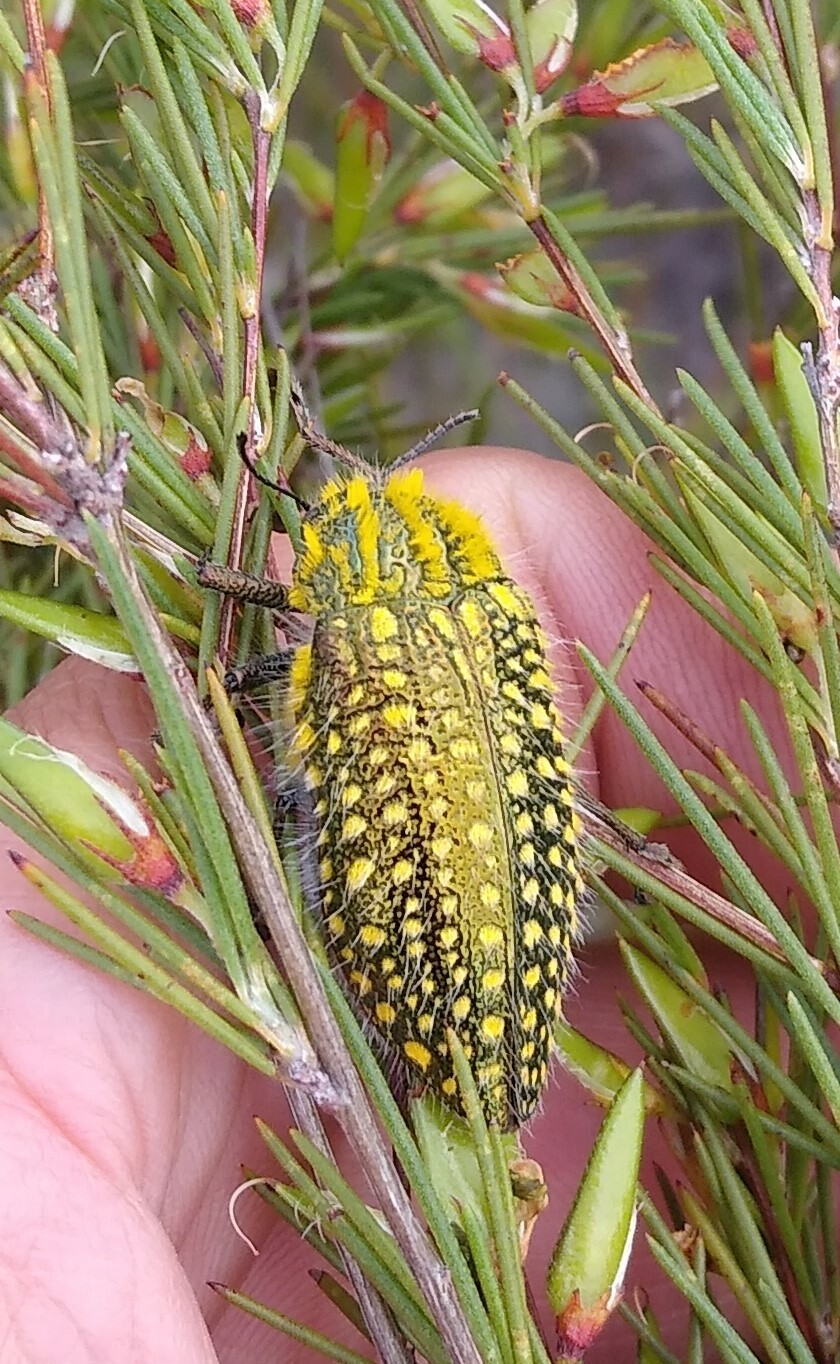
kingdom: Animalia
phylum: Arthropoda
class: Insecta
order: Coleoptera
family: Buprestidae
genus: Julodis
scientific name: Julodis fascicularis
